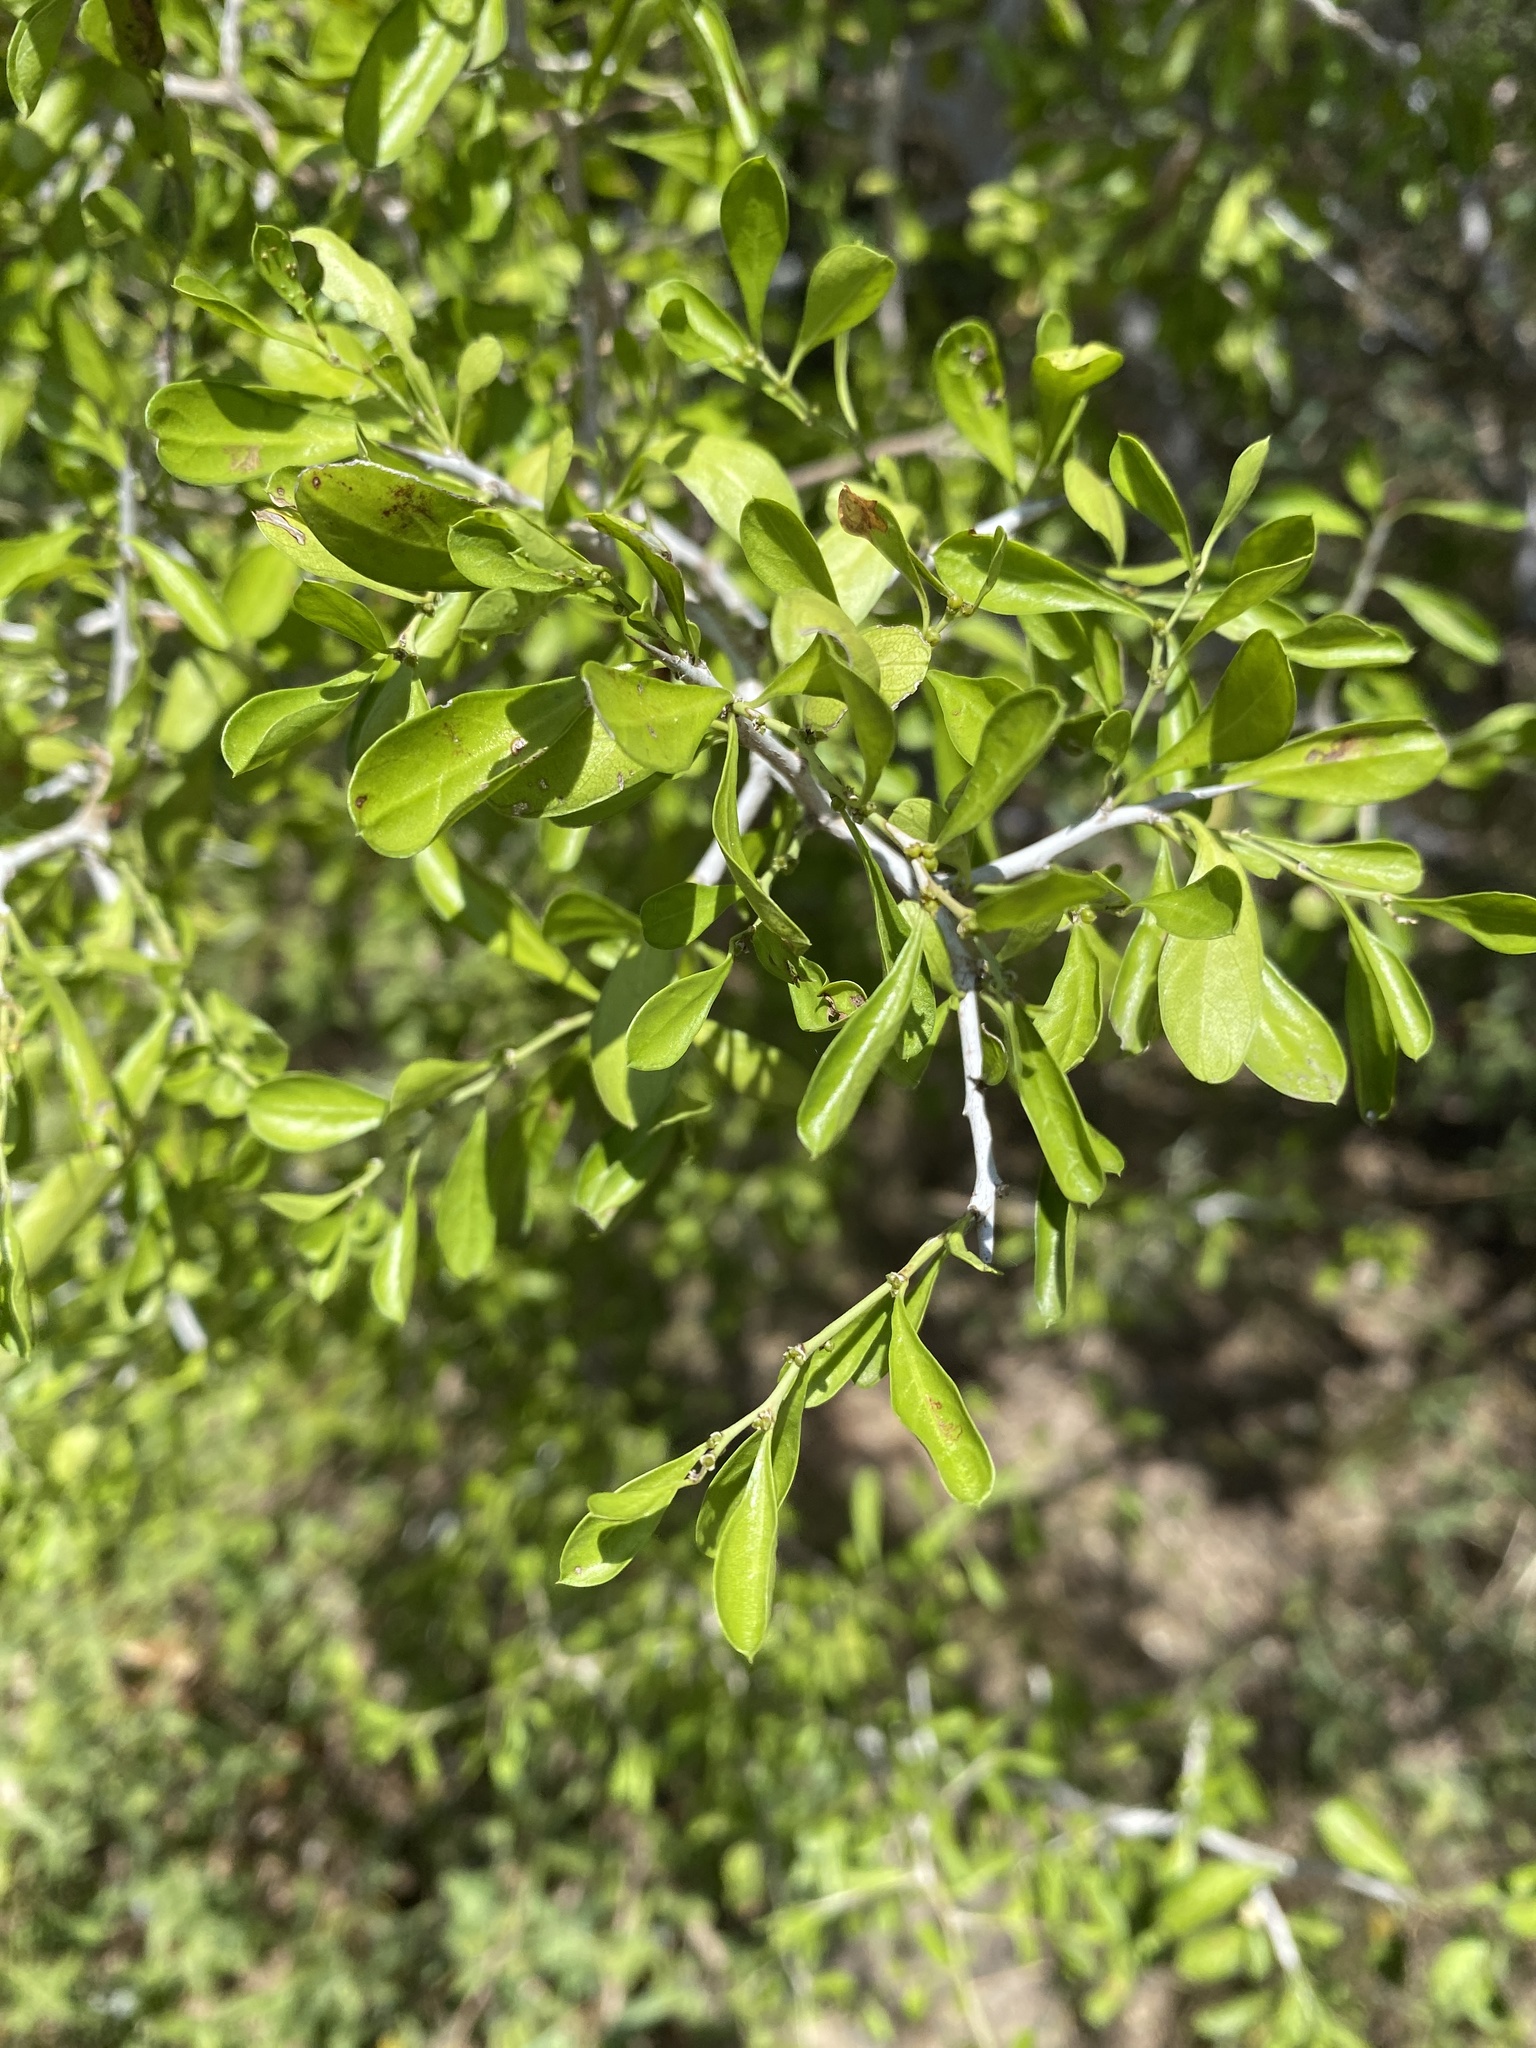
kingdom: Plantae
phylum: Tracheophyta
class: Magnoliopsida
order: Rosales
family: Rhamnaceae
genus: Condalia
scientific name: Condalia hookeri
